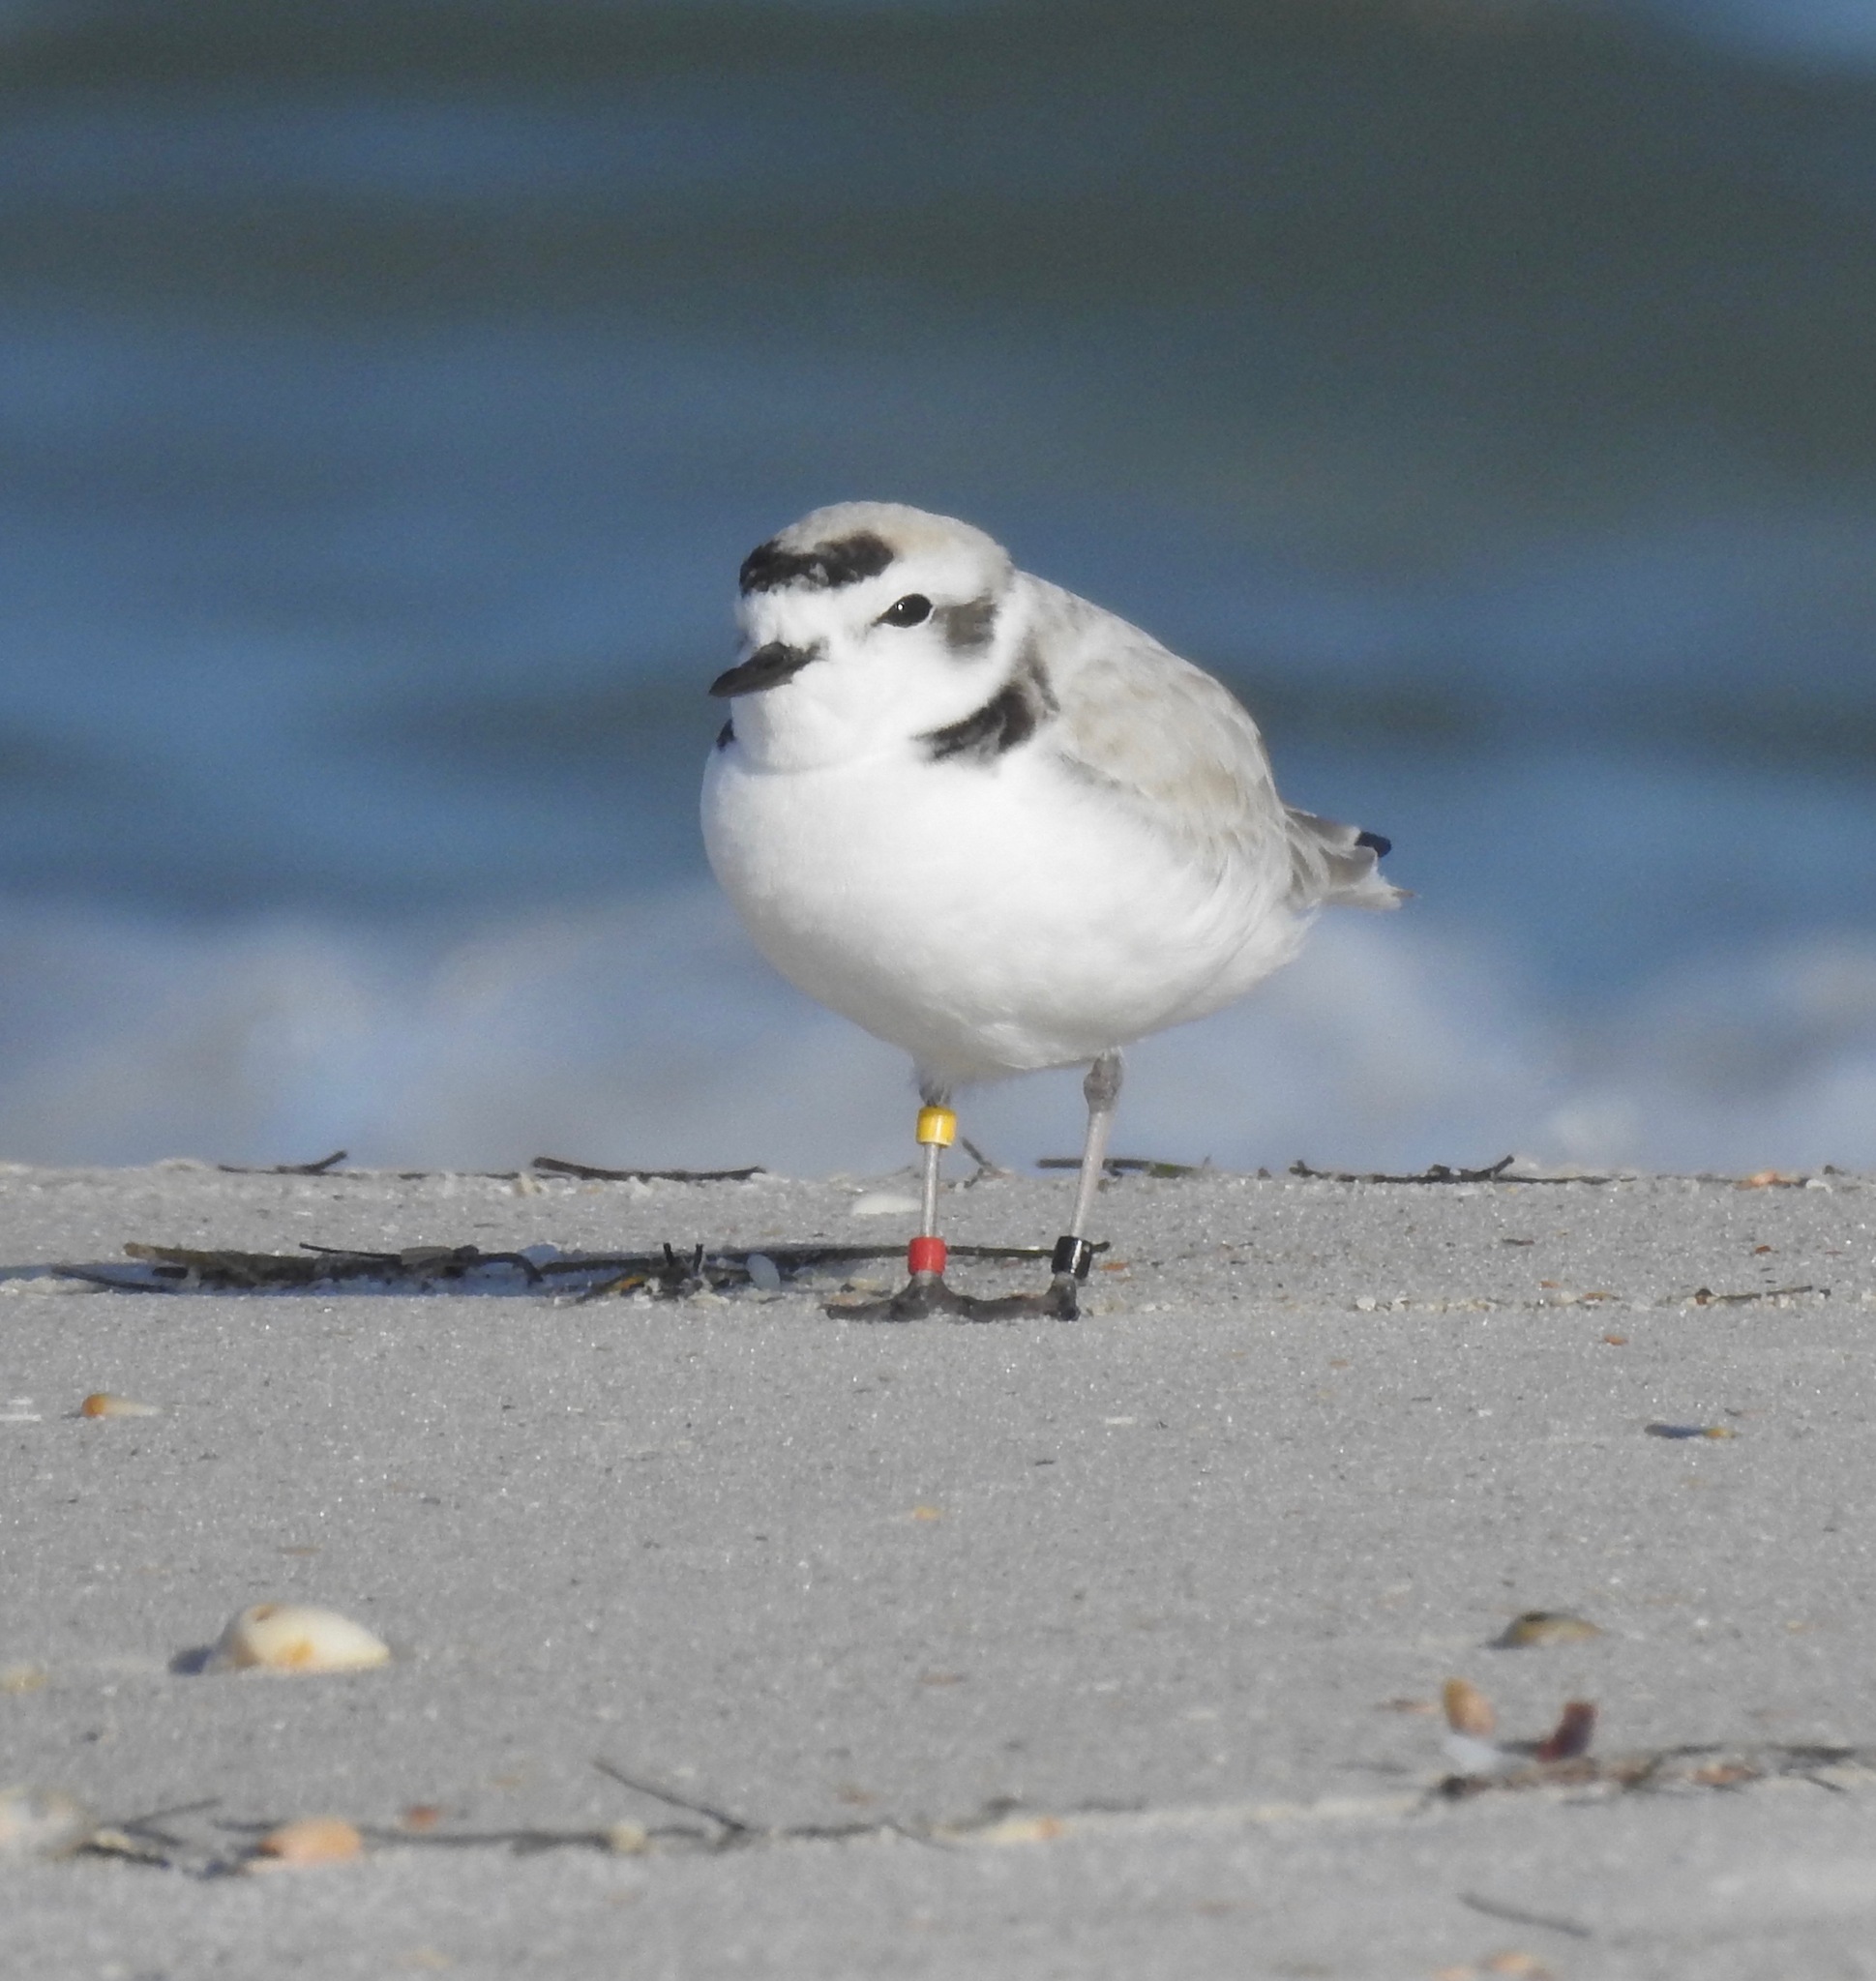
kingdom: Animalia
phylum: Chordata
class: Aves
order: Charadriiformes
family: Charadriidae
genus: Anarhynchus
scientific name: Anarhynchus
